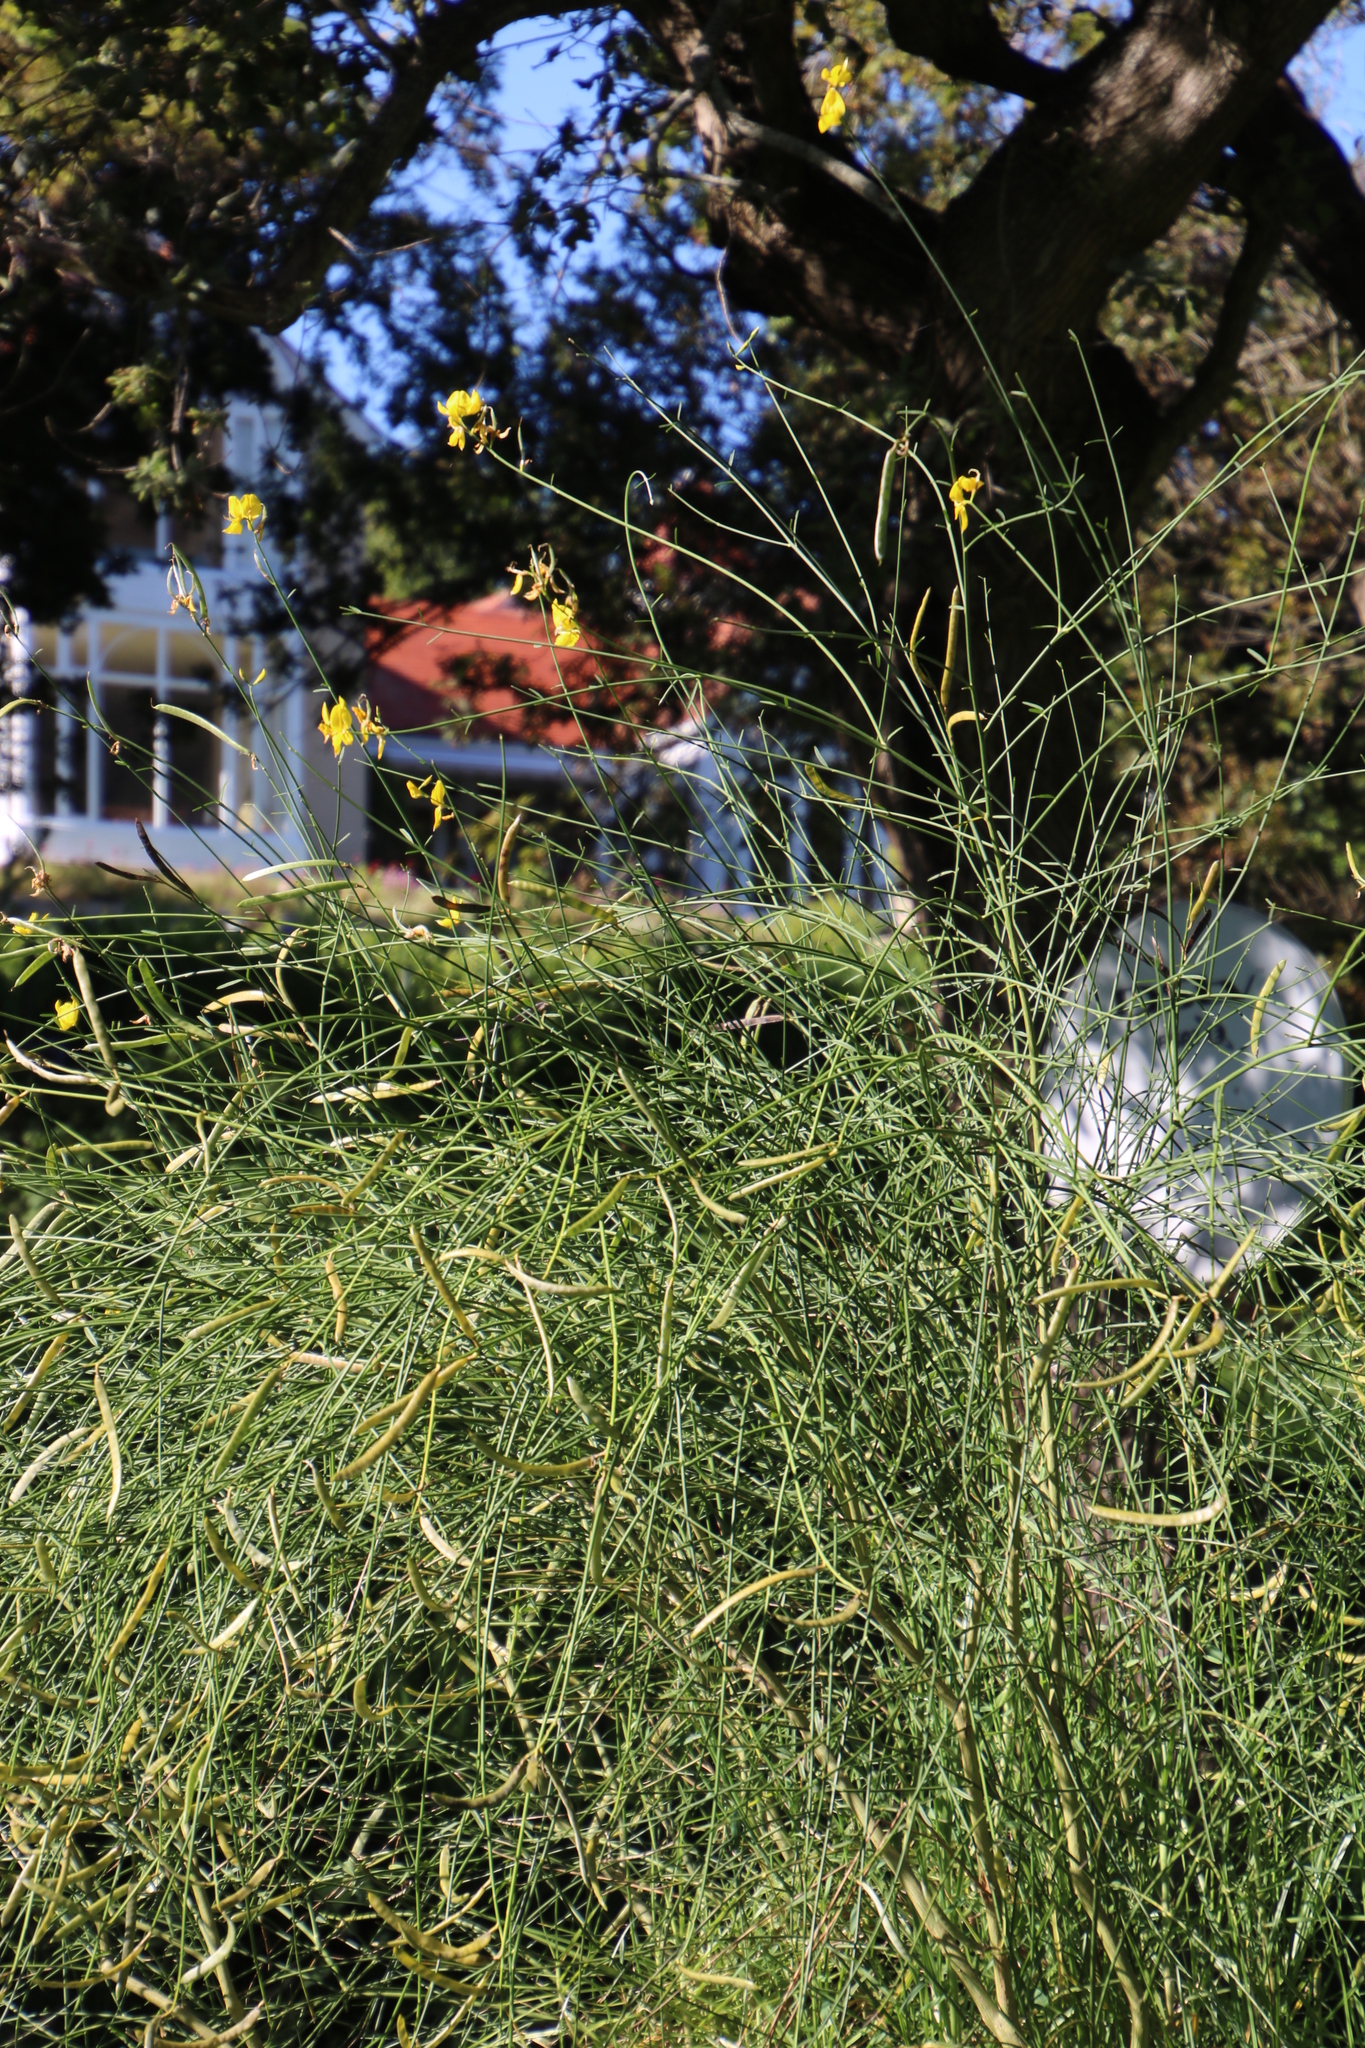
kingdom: Plantae
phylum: Tracheophyta
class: Magnoliopsida
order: Fabales
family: Fabaceae
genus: Spartium
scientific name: Spartium junceum
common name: Spanish broom
